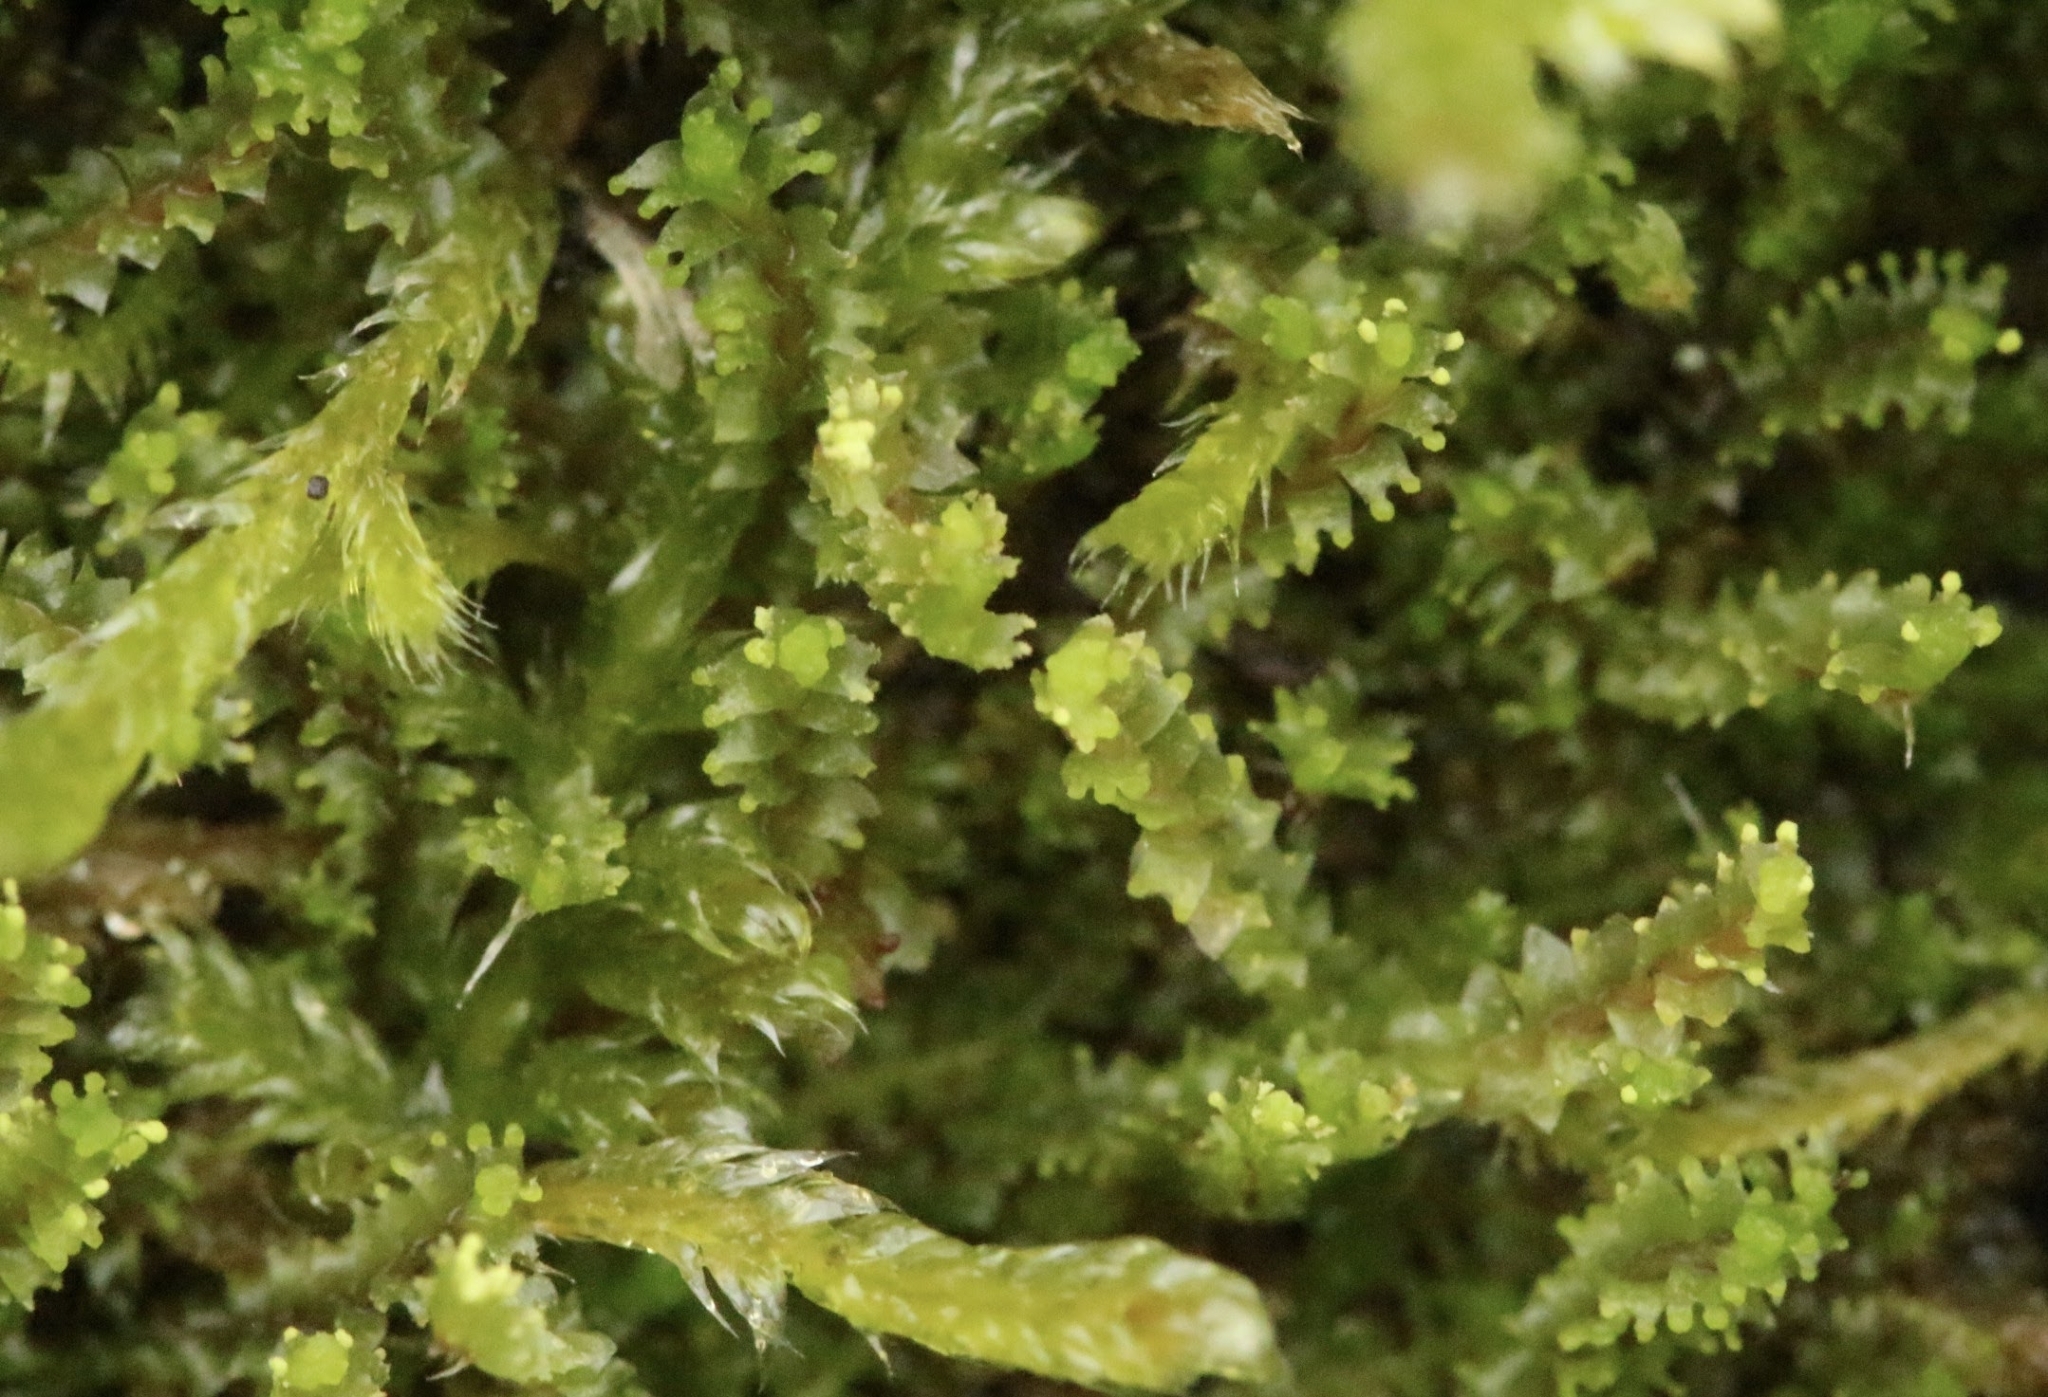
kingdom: Plantae
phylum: Marchantiophyta
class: Jungermanniopsida
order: Jungermanniales
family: Lophoziaceae
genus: Lophozia
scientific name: Lophozia ventricosa
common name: Tumid notchwort
